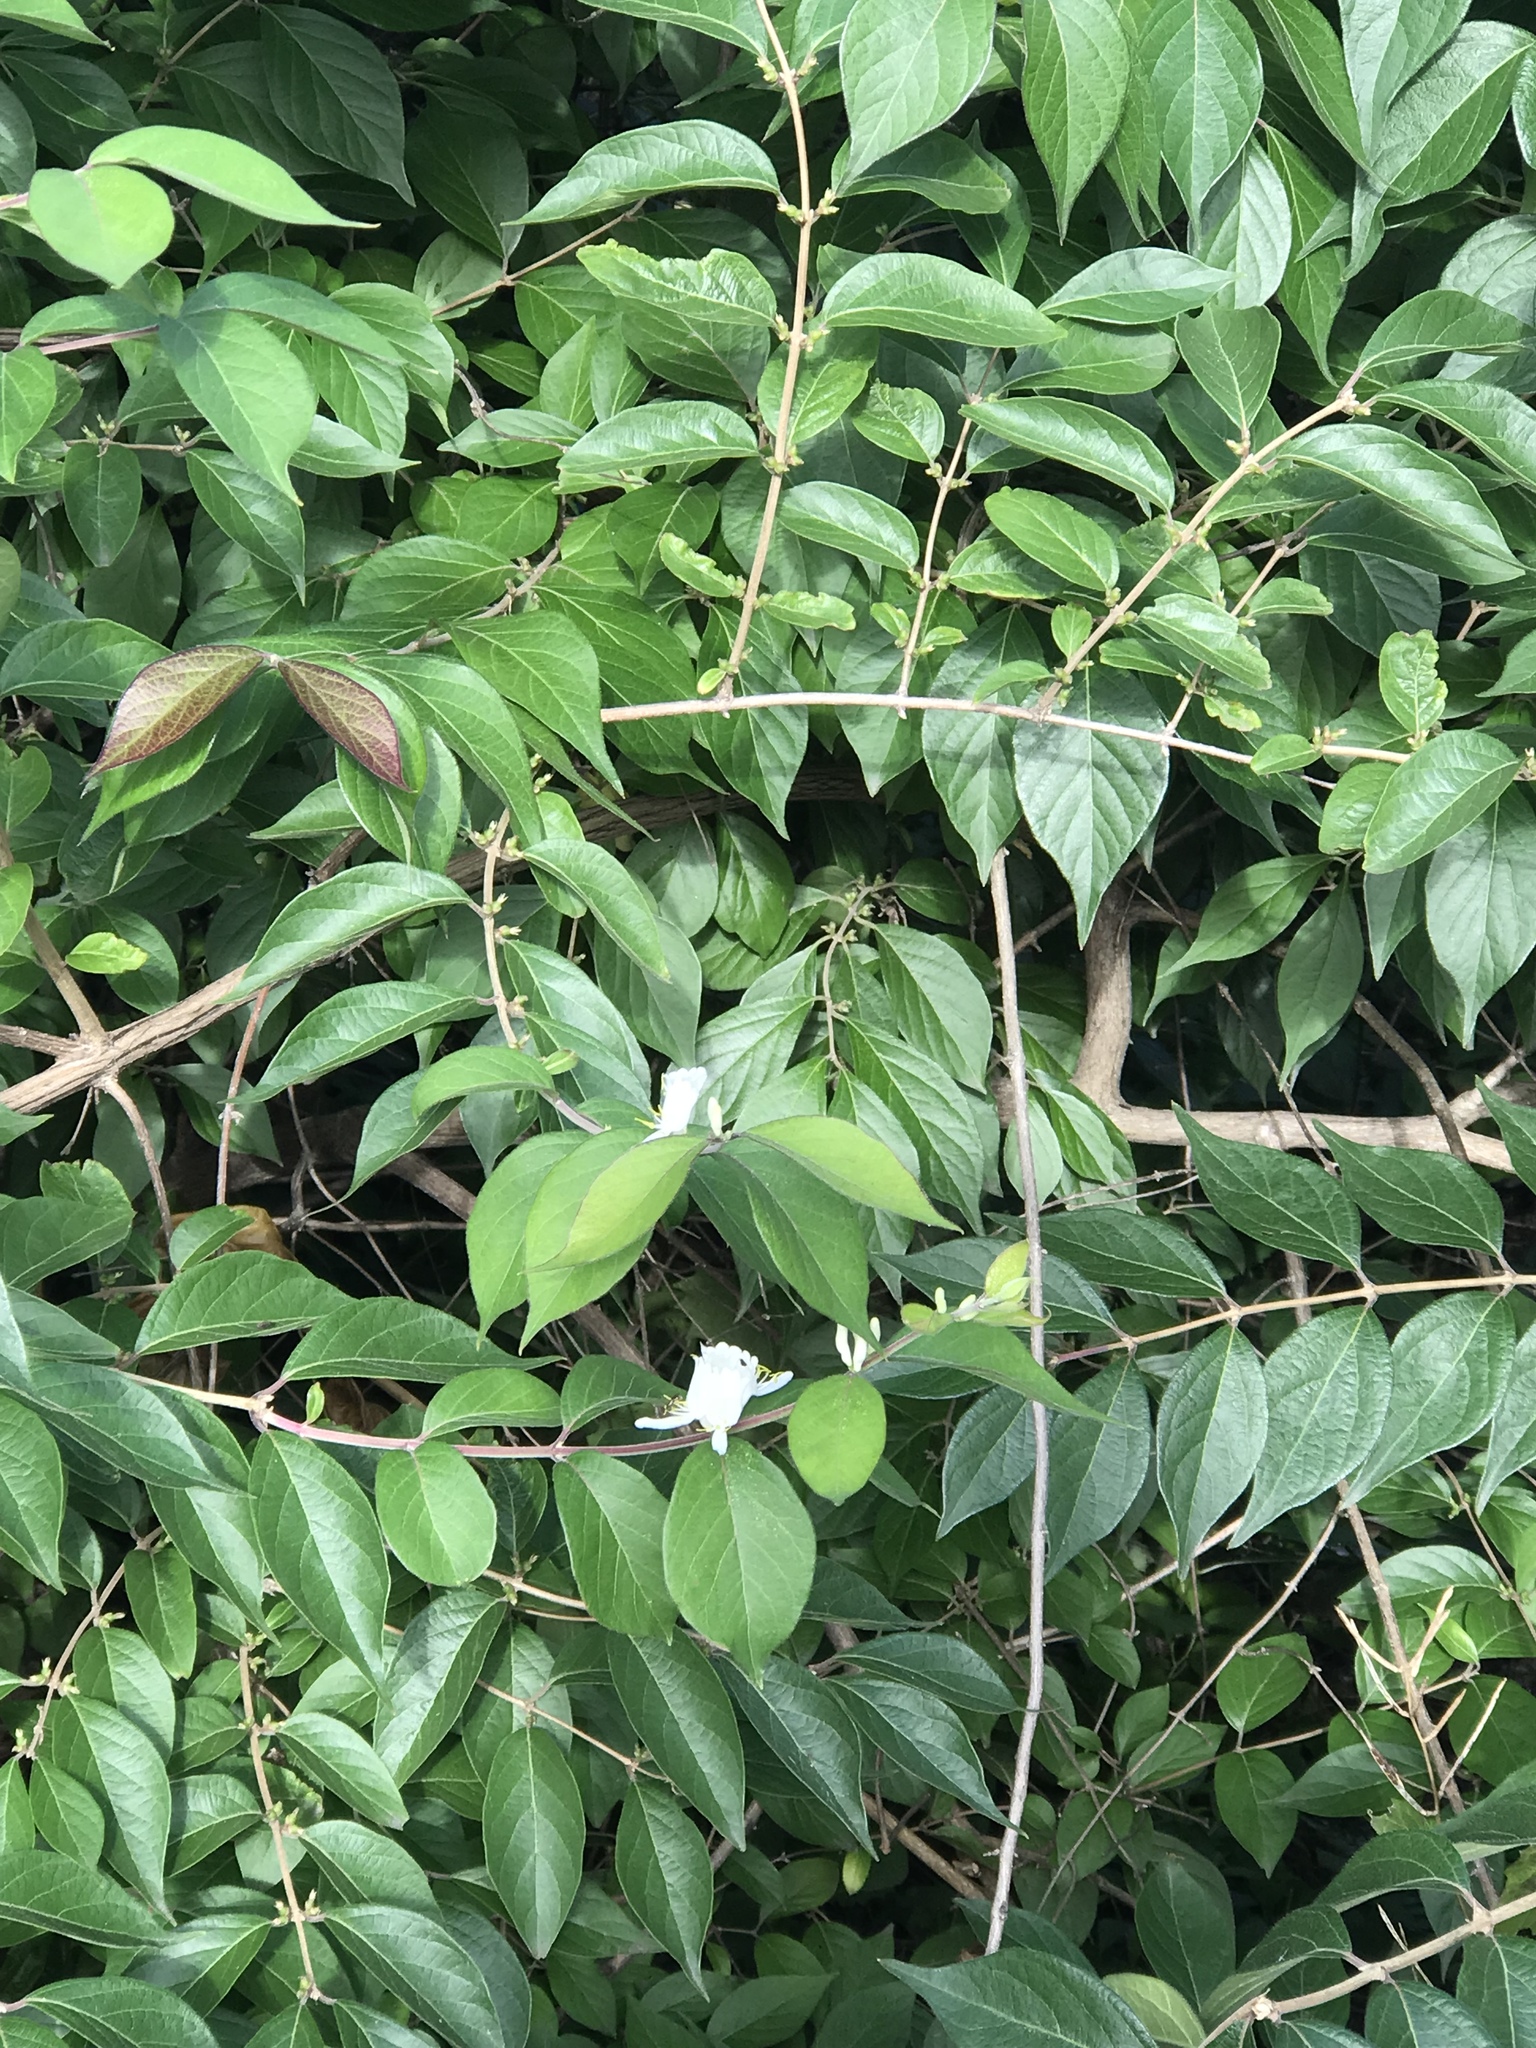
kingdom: Plantae
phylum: Tracheophyta
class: Magnoliopsida
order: Dipsacales
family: Caprifoliaceae
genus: Lonicera
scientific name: Lonicera maackii
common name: Amur honeysuckle
